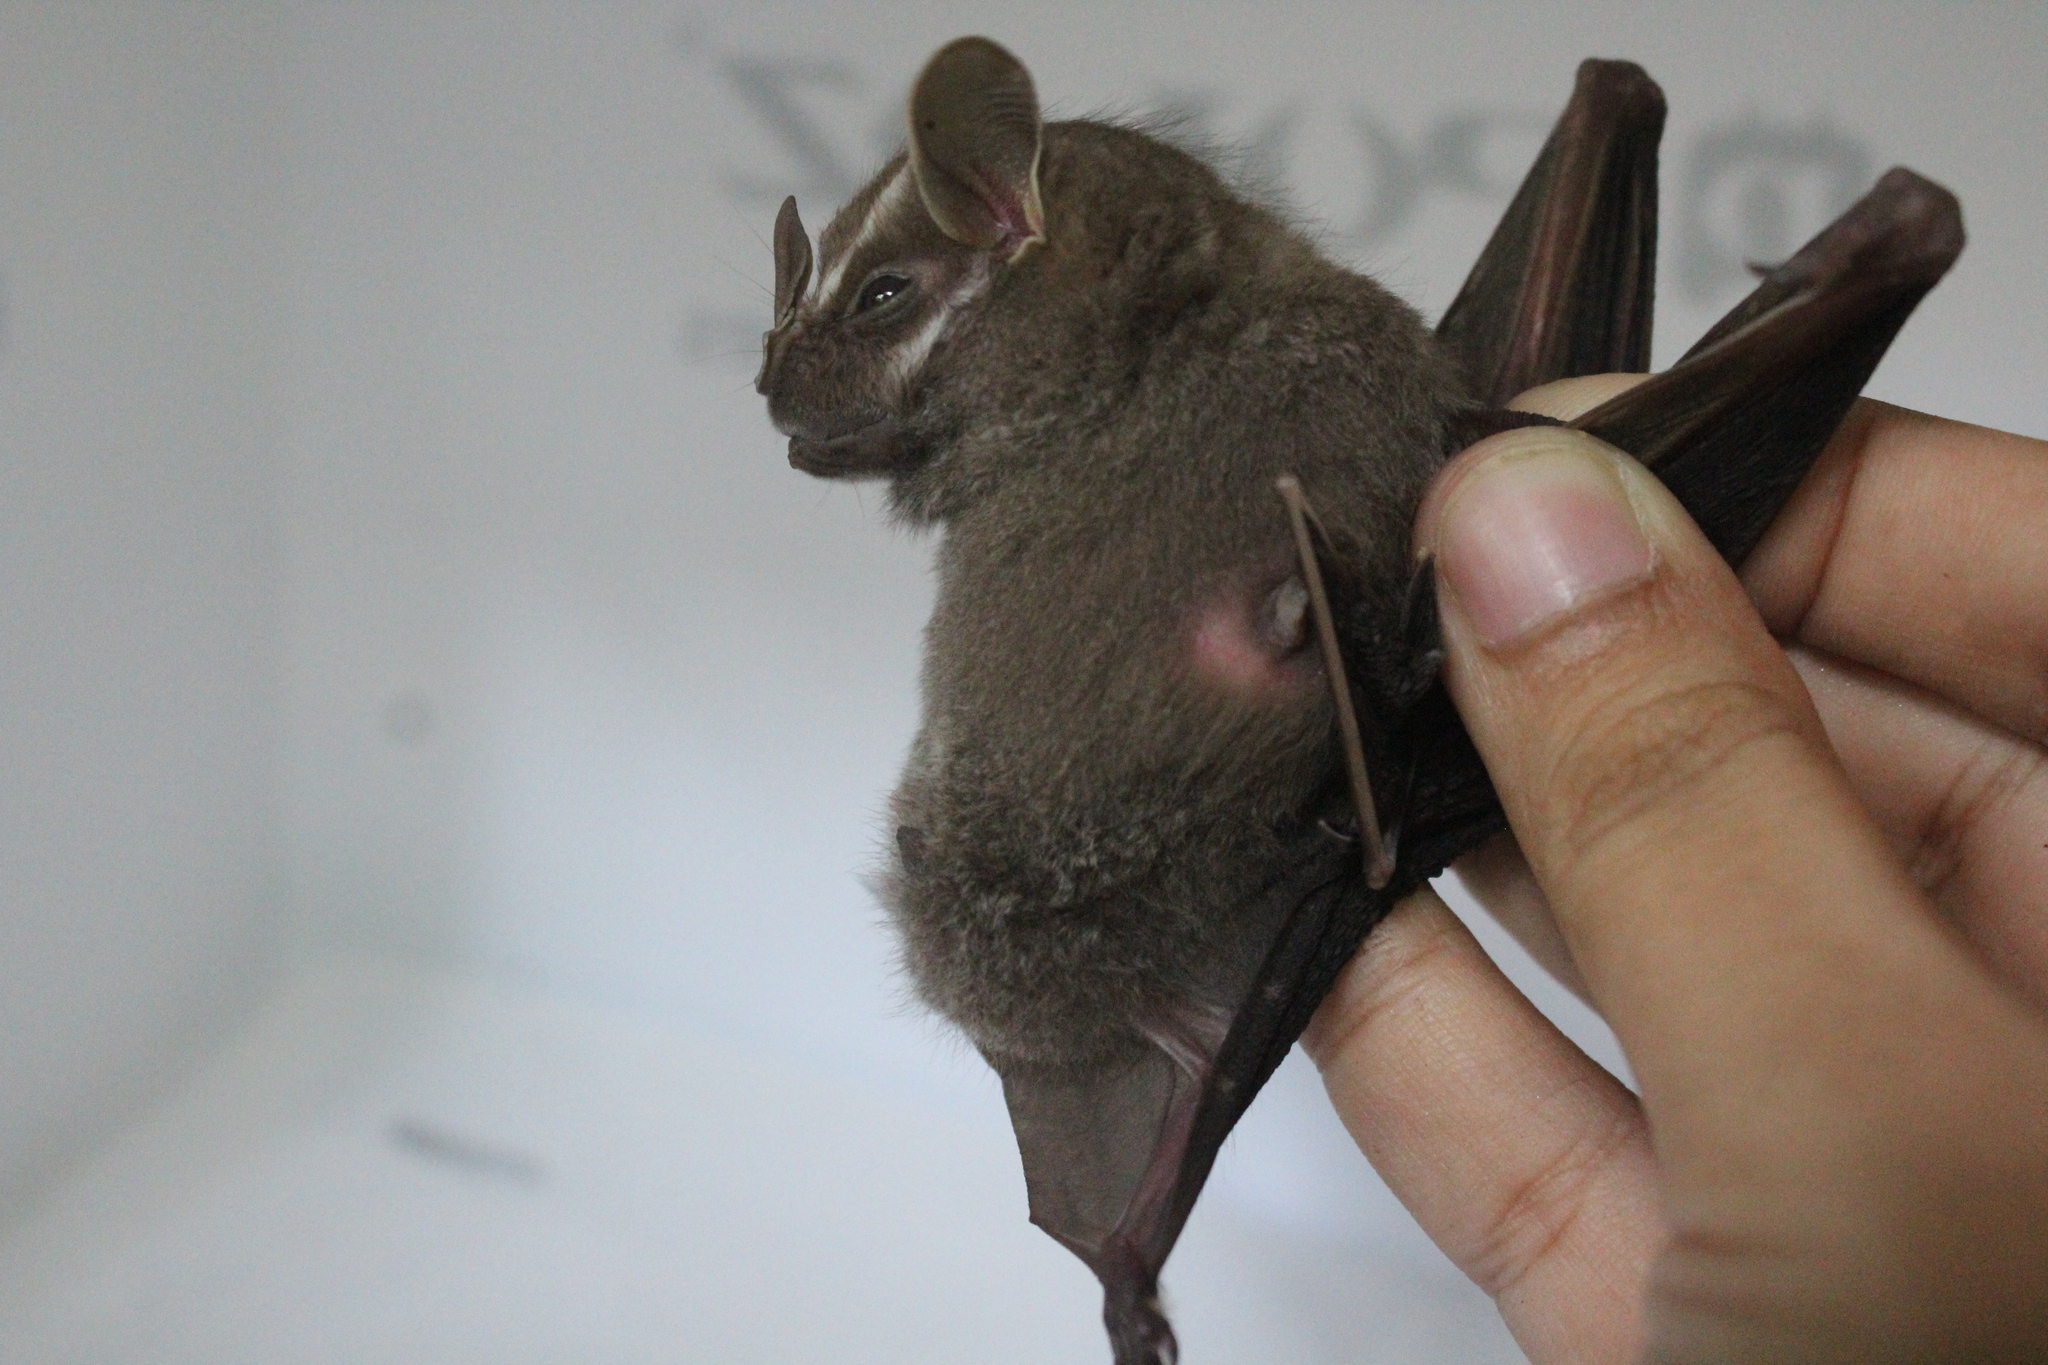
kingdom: Animalia
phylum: Chordata
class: Mammalia
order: Chiroptera
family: Phyllostomidae
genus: Chiroderma
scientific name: Chiroderma salvini
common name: Salvin's big-eyed bat
